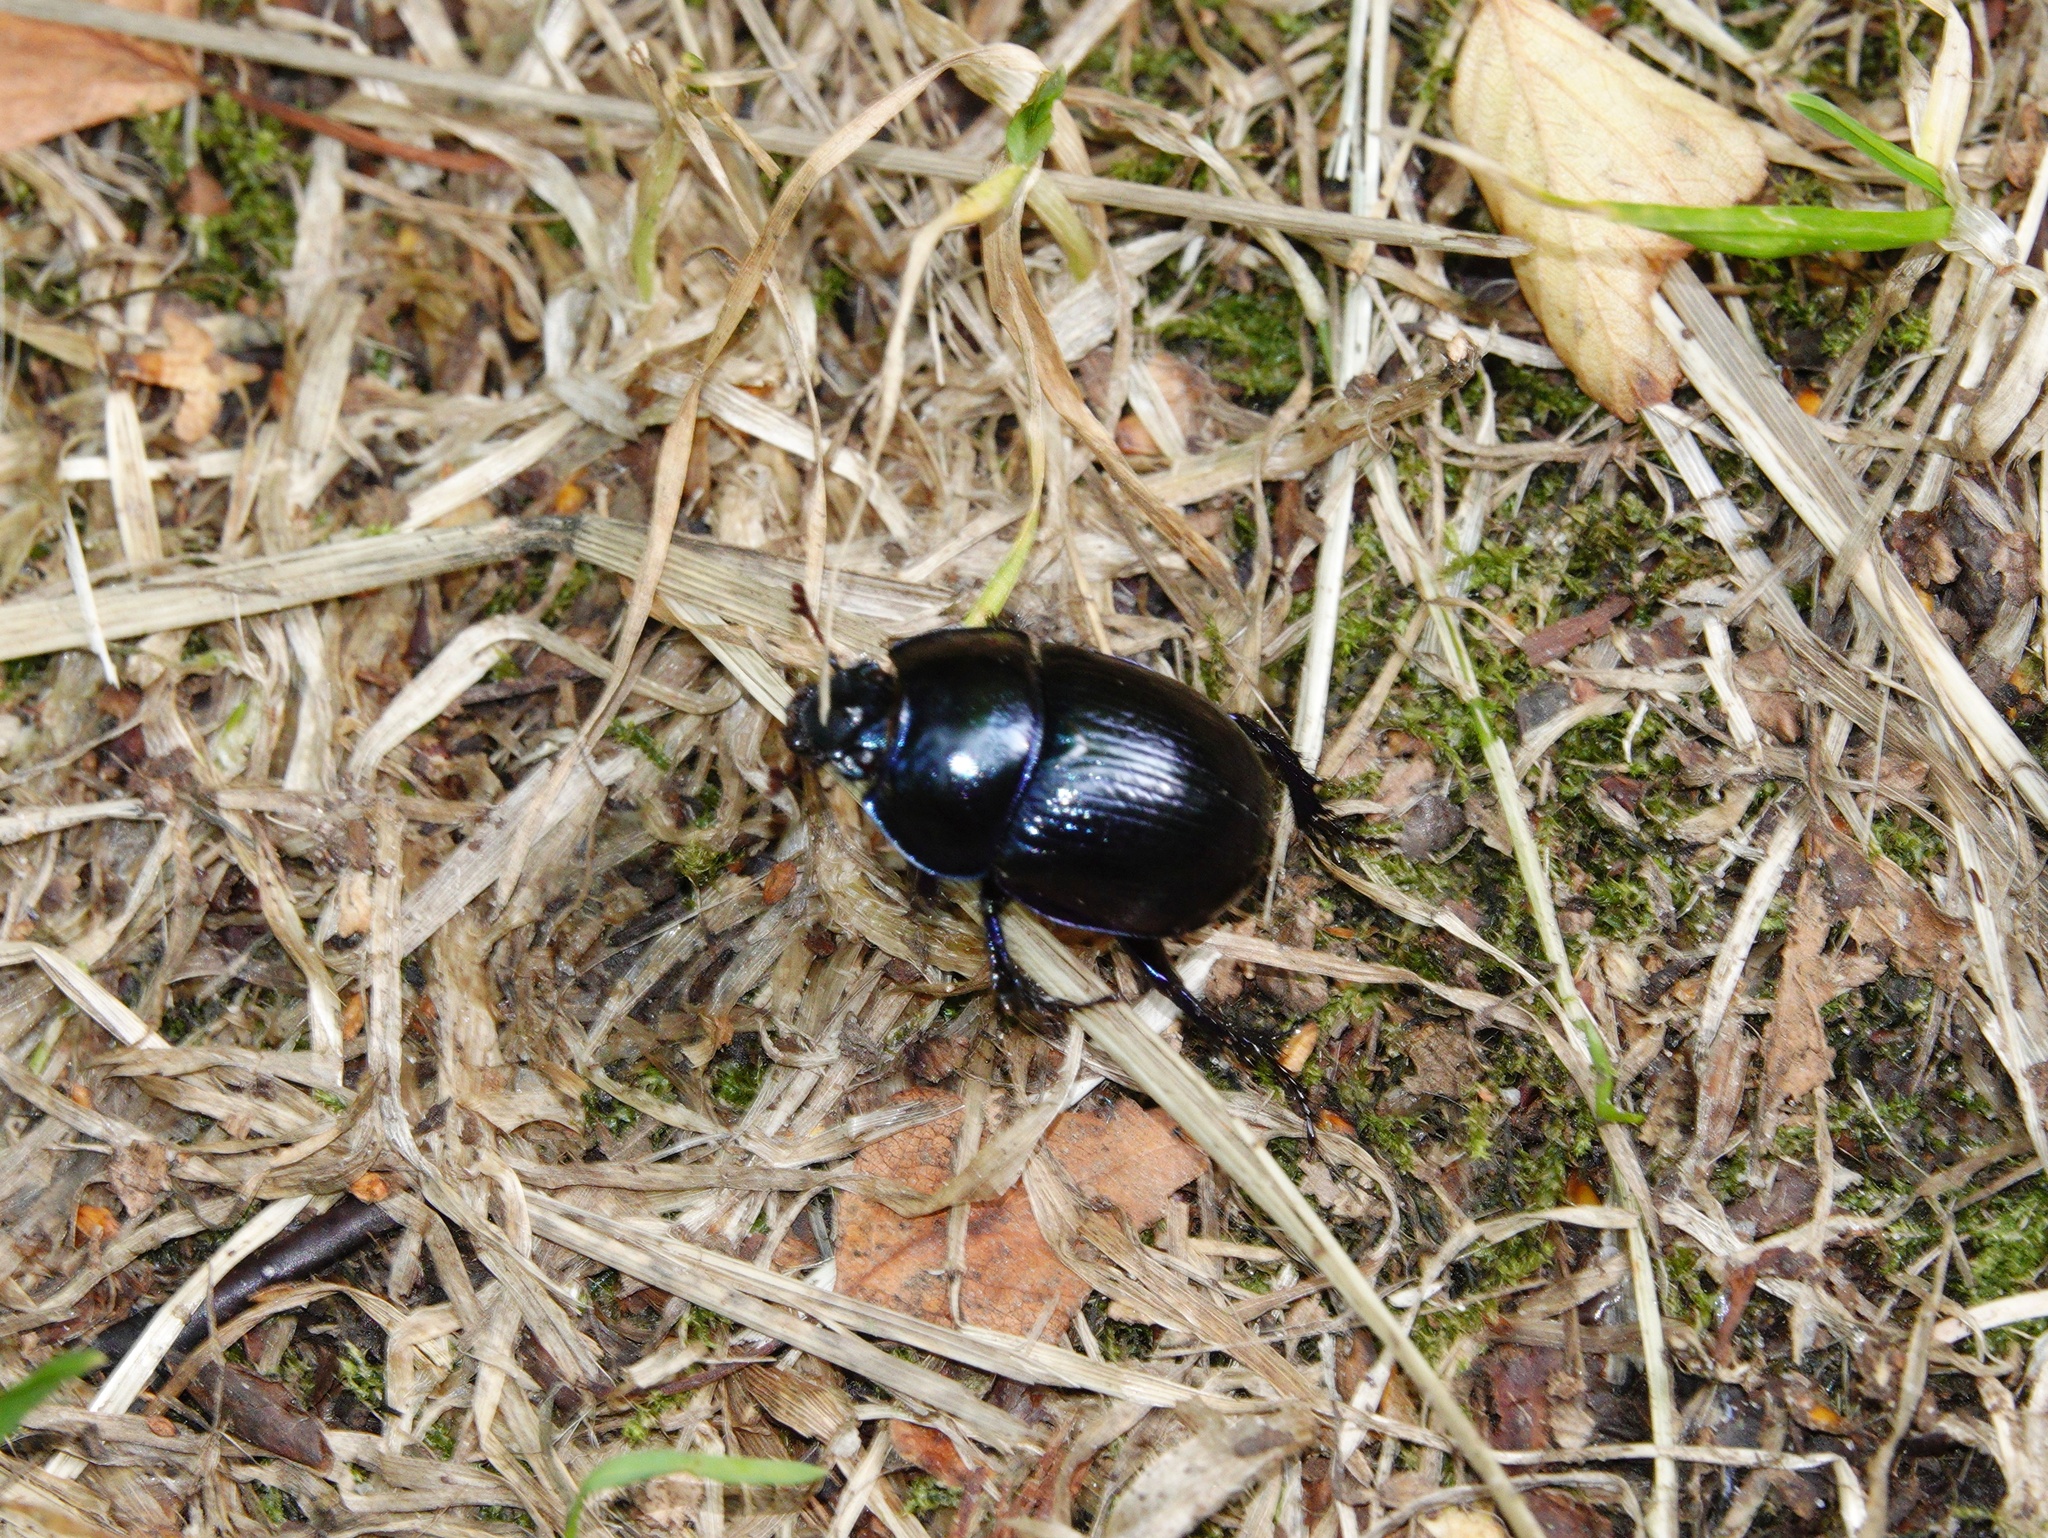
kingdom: Animalia
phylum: Arthropoda
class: Insecta
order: Coleoptera
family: Geotrupidae
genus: Anoplotrupes
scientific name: Anoplotrupes stercorosus
